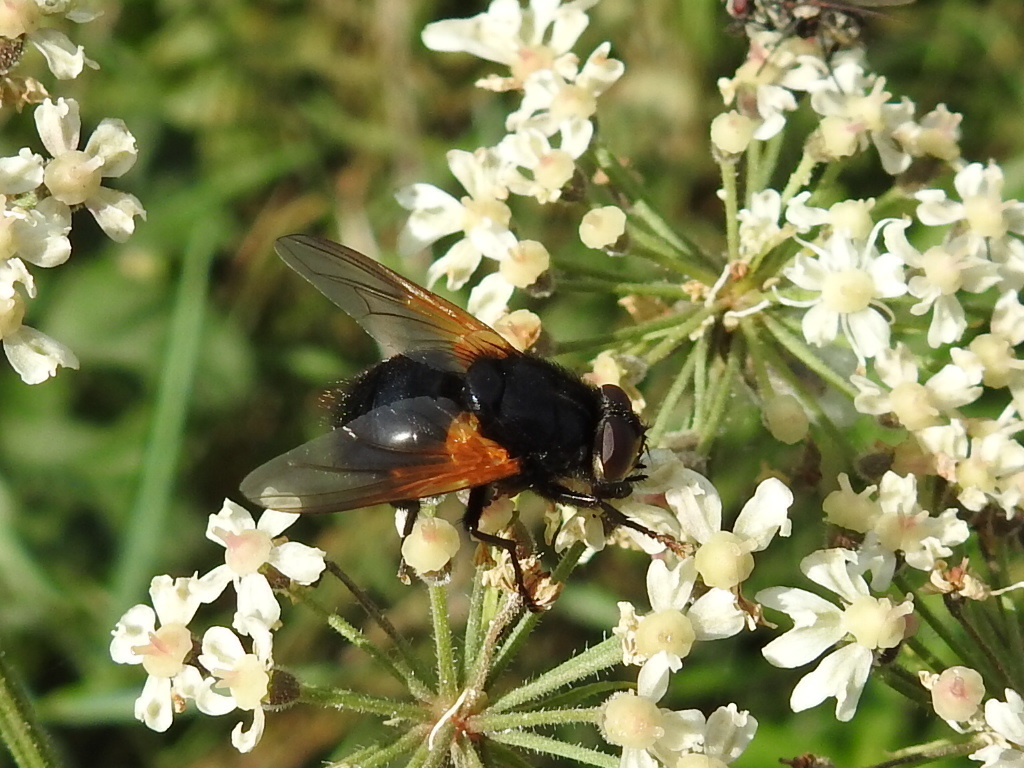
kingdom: Animalia
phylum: Arthropoda
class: Insecta
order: Diptera
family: Muscidae
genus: Mesembrina
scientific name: Mesembrina meridiana
